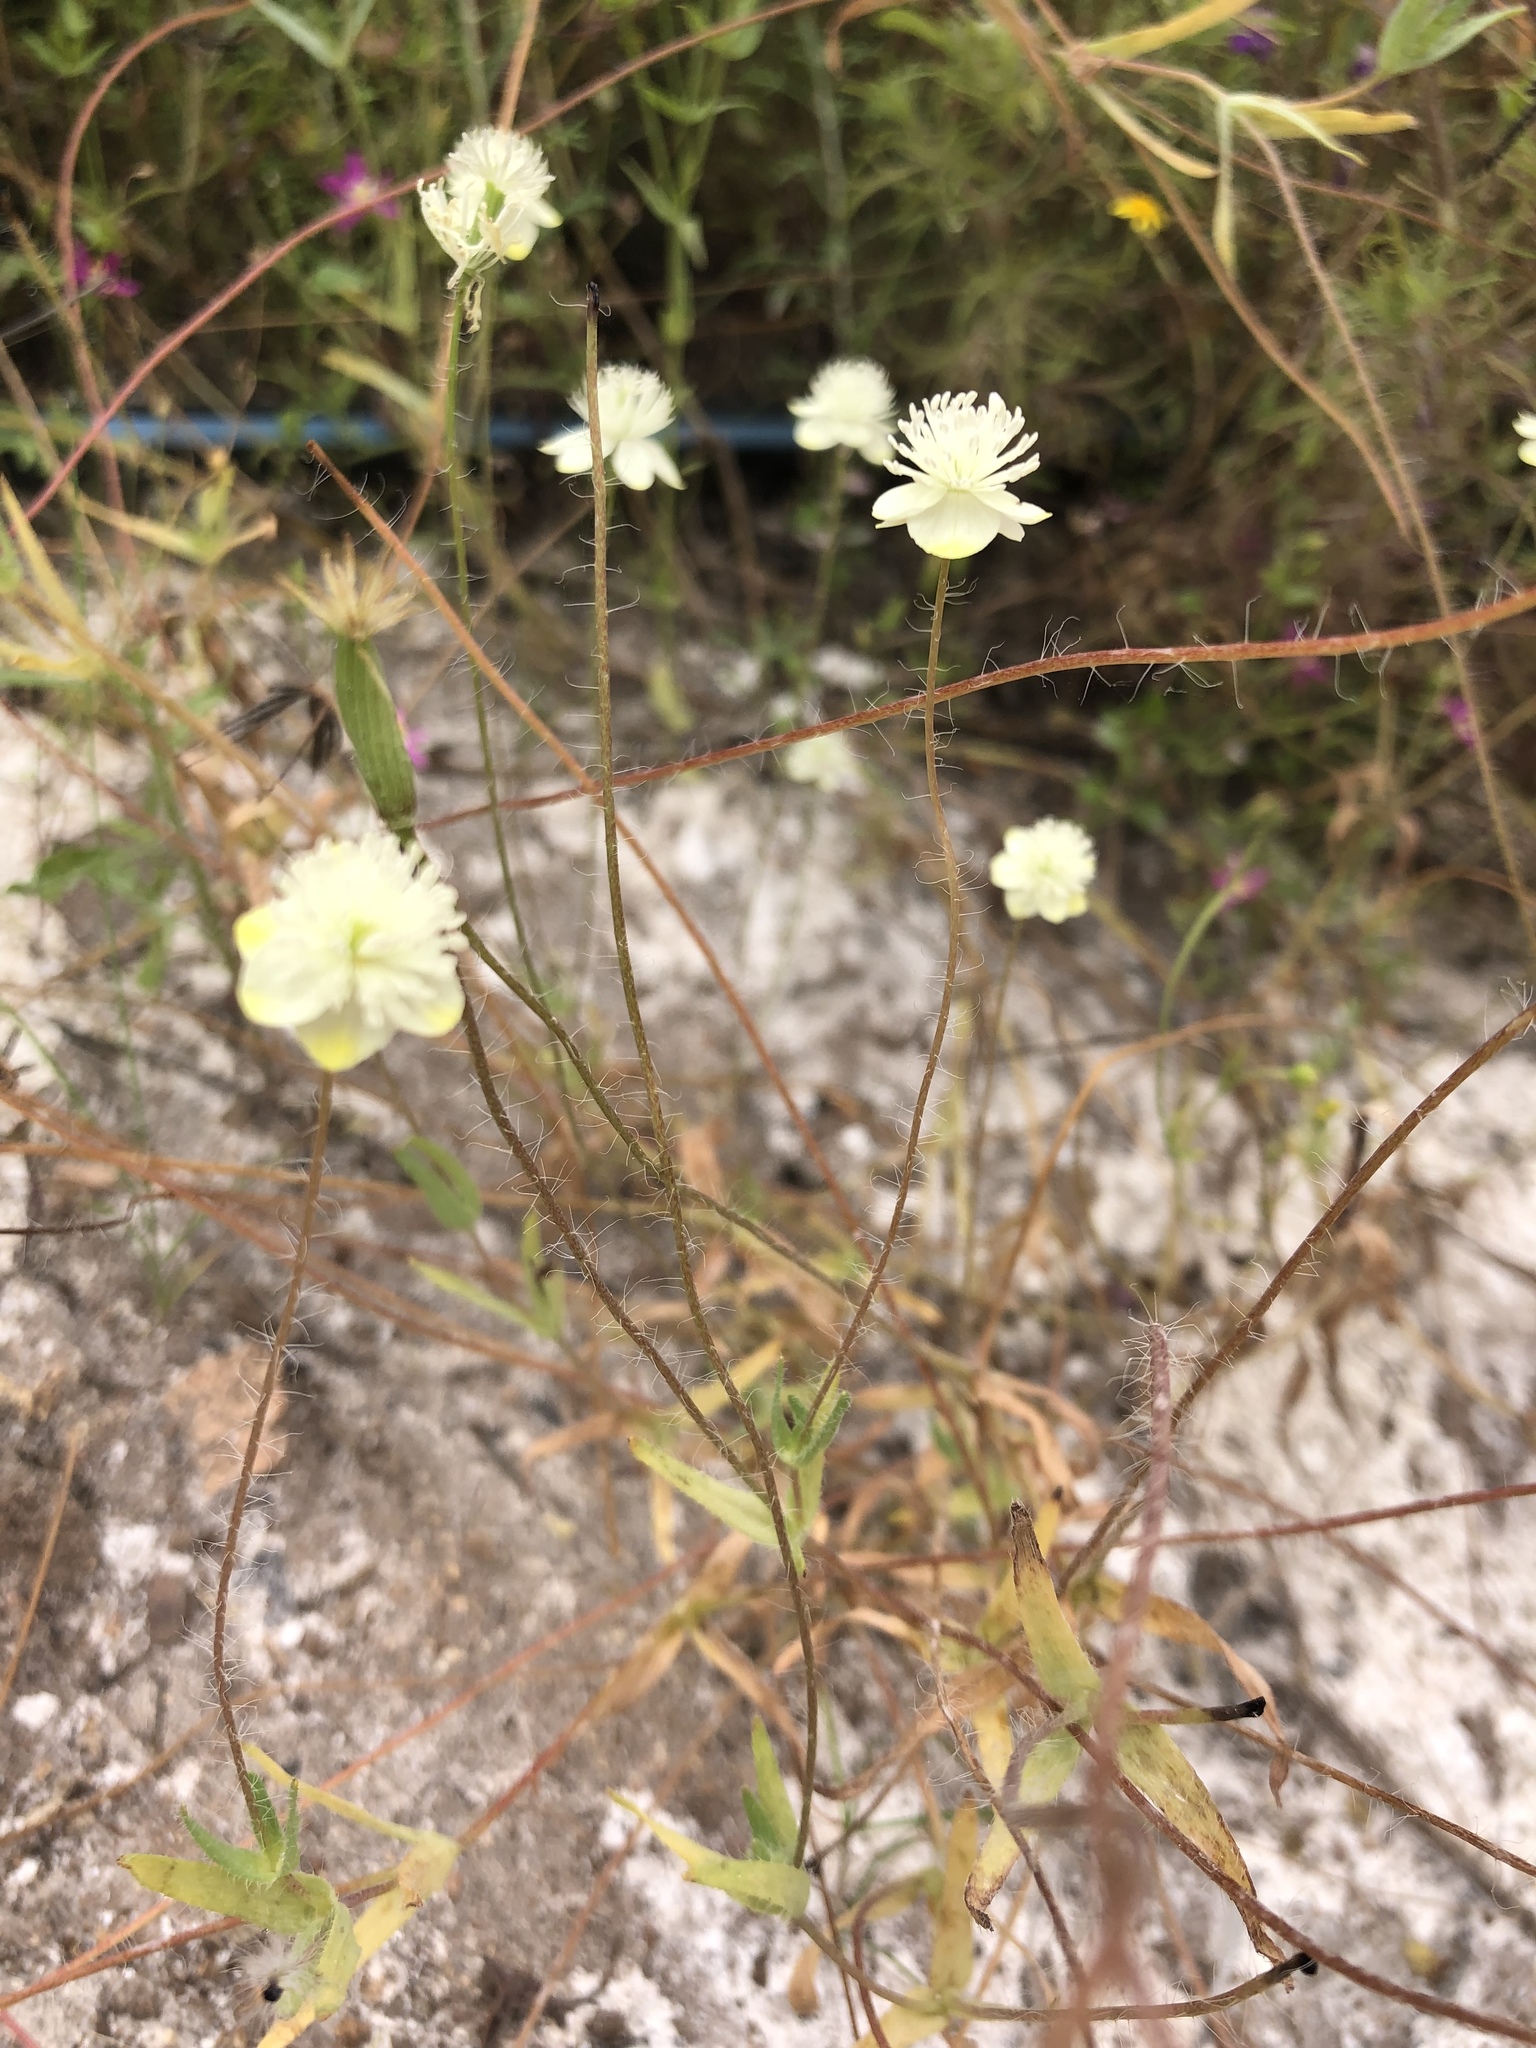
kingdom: Plantae
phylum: Tracheophyta
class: Magnoliopsida
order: Ranunculales
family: Papaveraceae
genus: Platystemon
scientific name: Platystemon californicus
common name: Cream-cups
